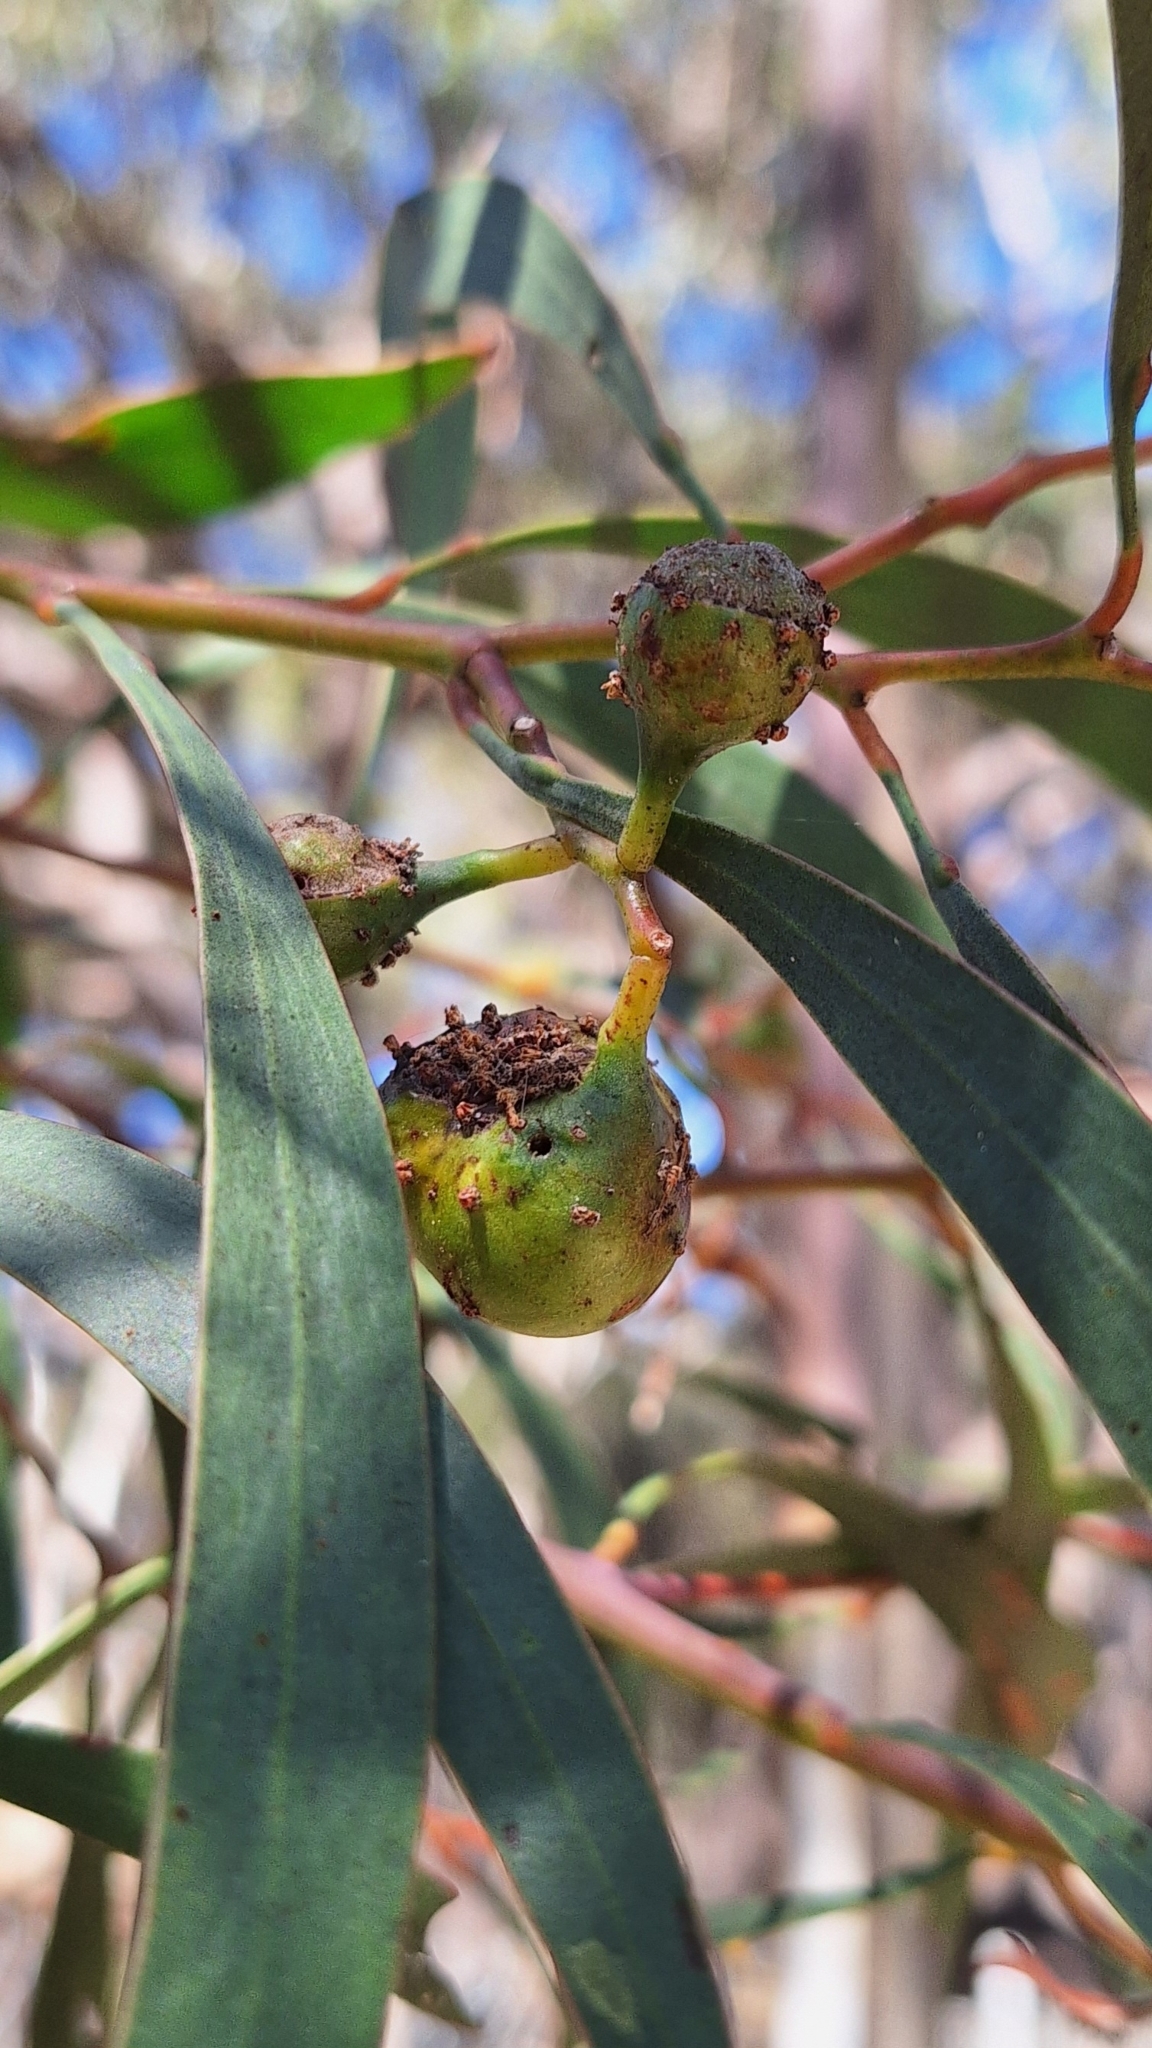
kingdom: Animalia
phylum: Arthropoda
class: Insecta
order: Hymenoptera
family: Pteromalidae
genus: Trichilogaster
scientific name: Trichilogaster signiventris
